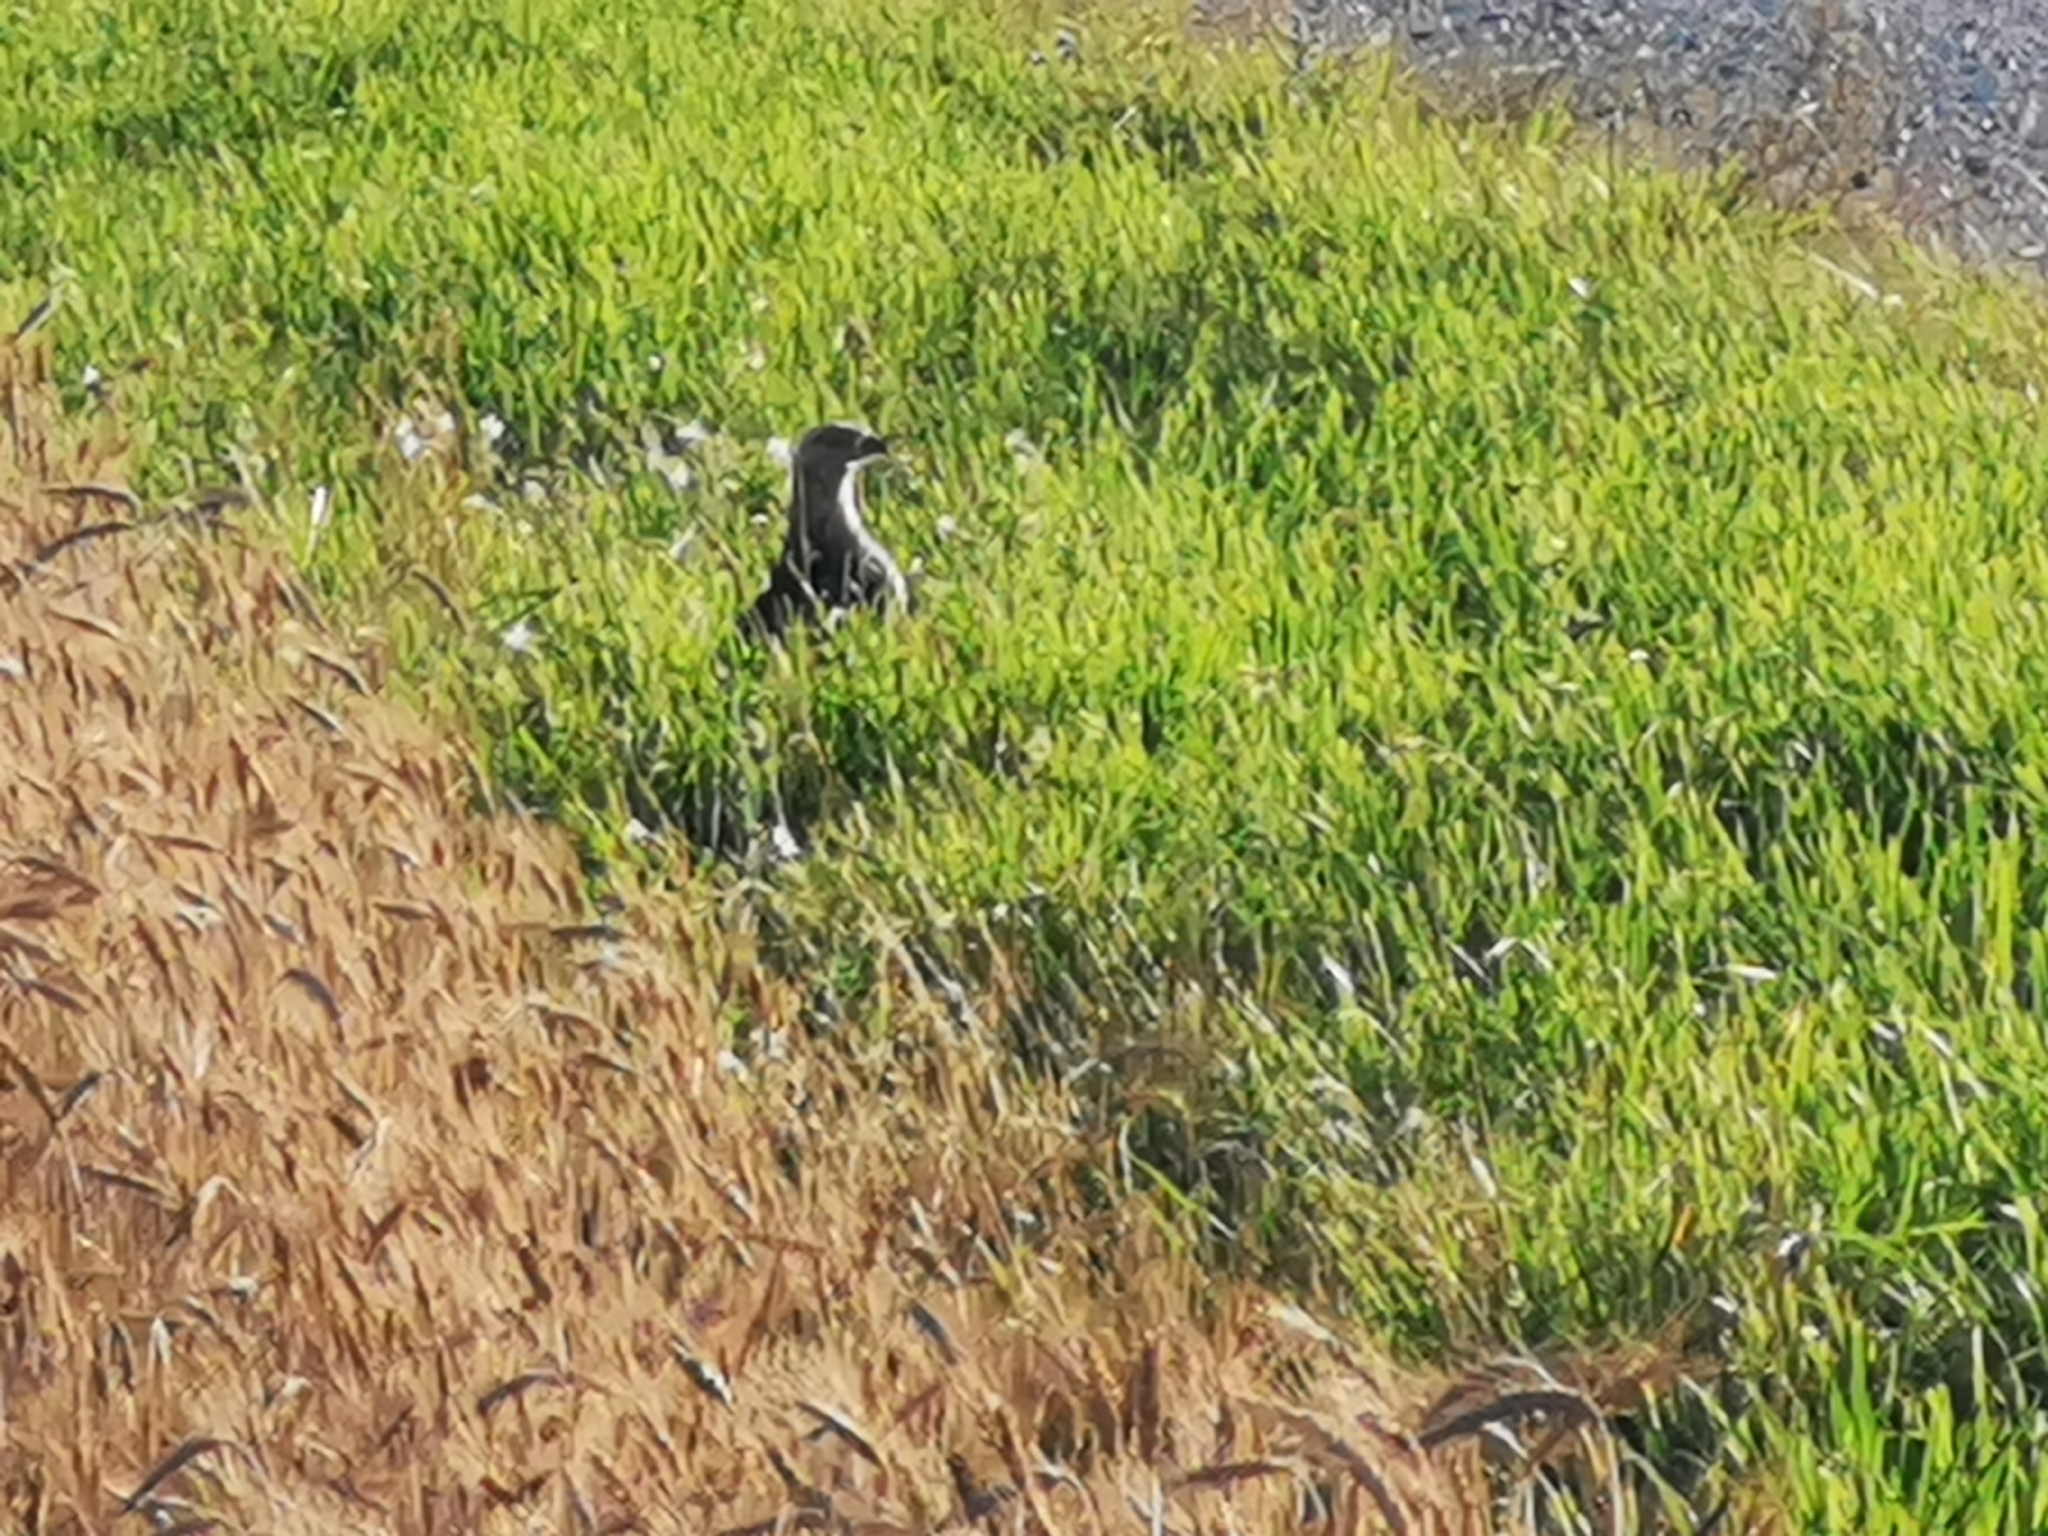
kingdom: Animalia
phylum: Chordata
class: Aves
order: Accipitriformes
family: Accipitridae
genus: Pernis
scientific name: Pernis apivorus
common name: European honey buzzard
